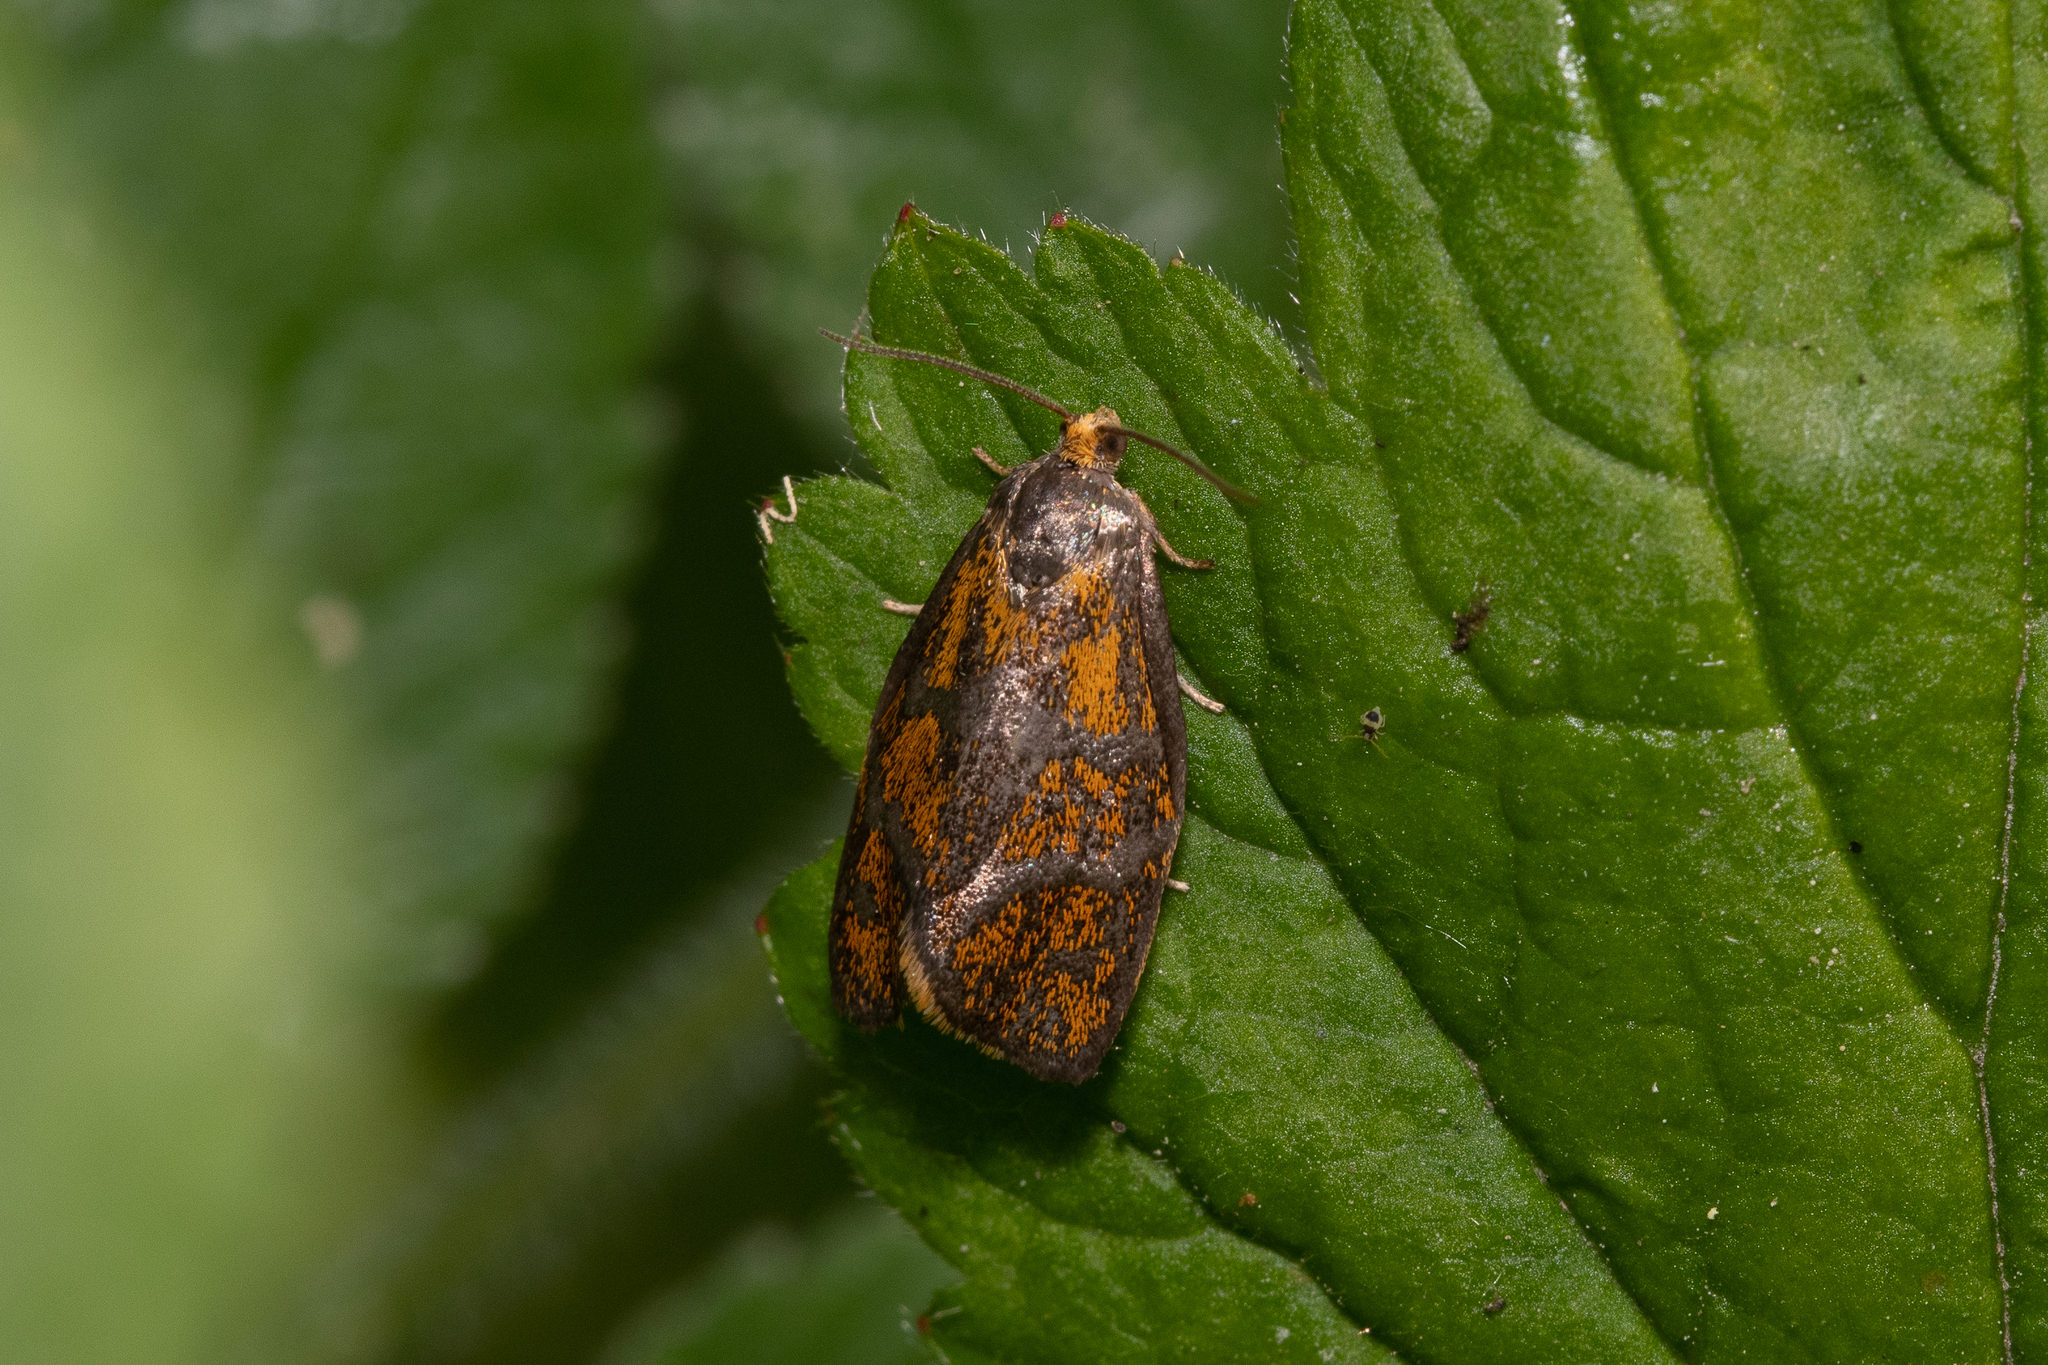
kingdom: Animalia
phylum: Arthropoda
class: Insecta
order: Lepidoptera
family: Tortricidae
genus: Ptycholoma
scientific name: Ptycholoma lecheana
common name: Leches twist moth
